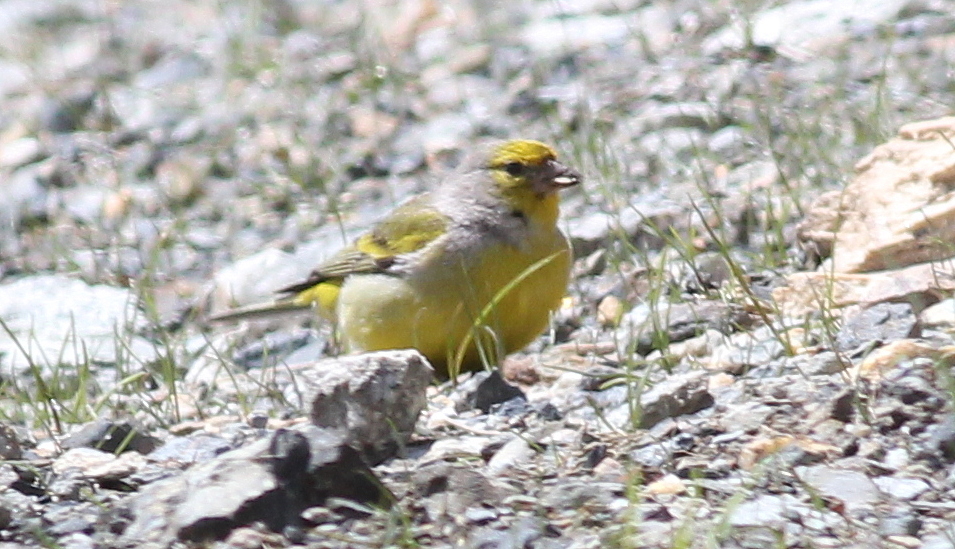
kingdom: Animalia
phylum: Chordata
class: Aves
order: Passeriformes
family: Fringillidae
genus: Carduelis
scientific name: Carduelis citrinella
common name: Citril finch
